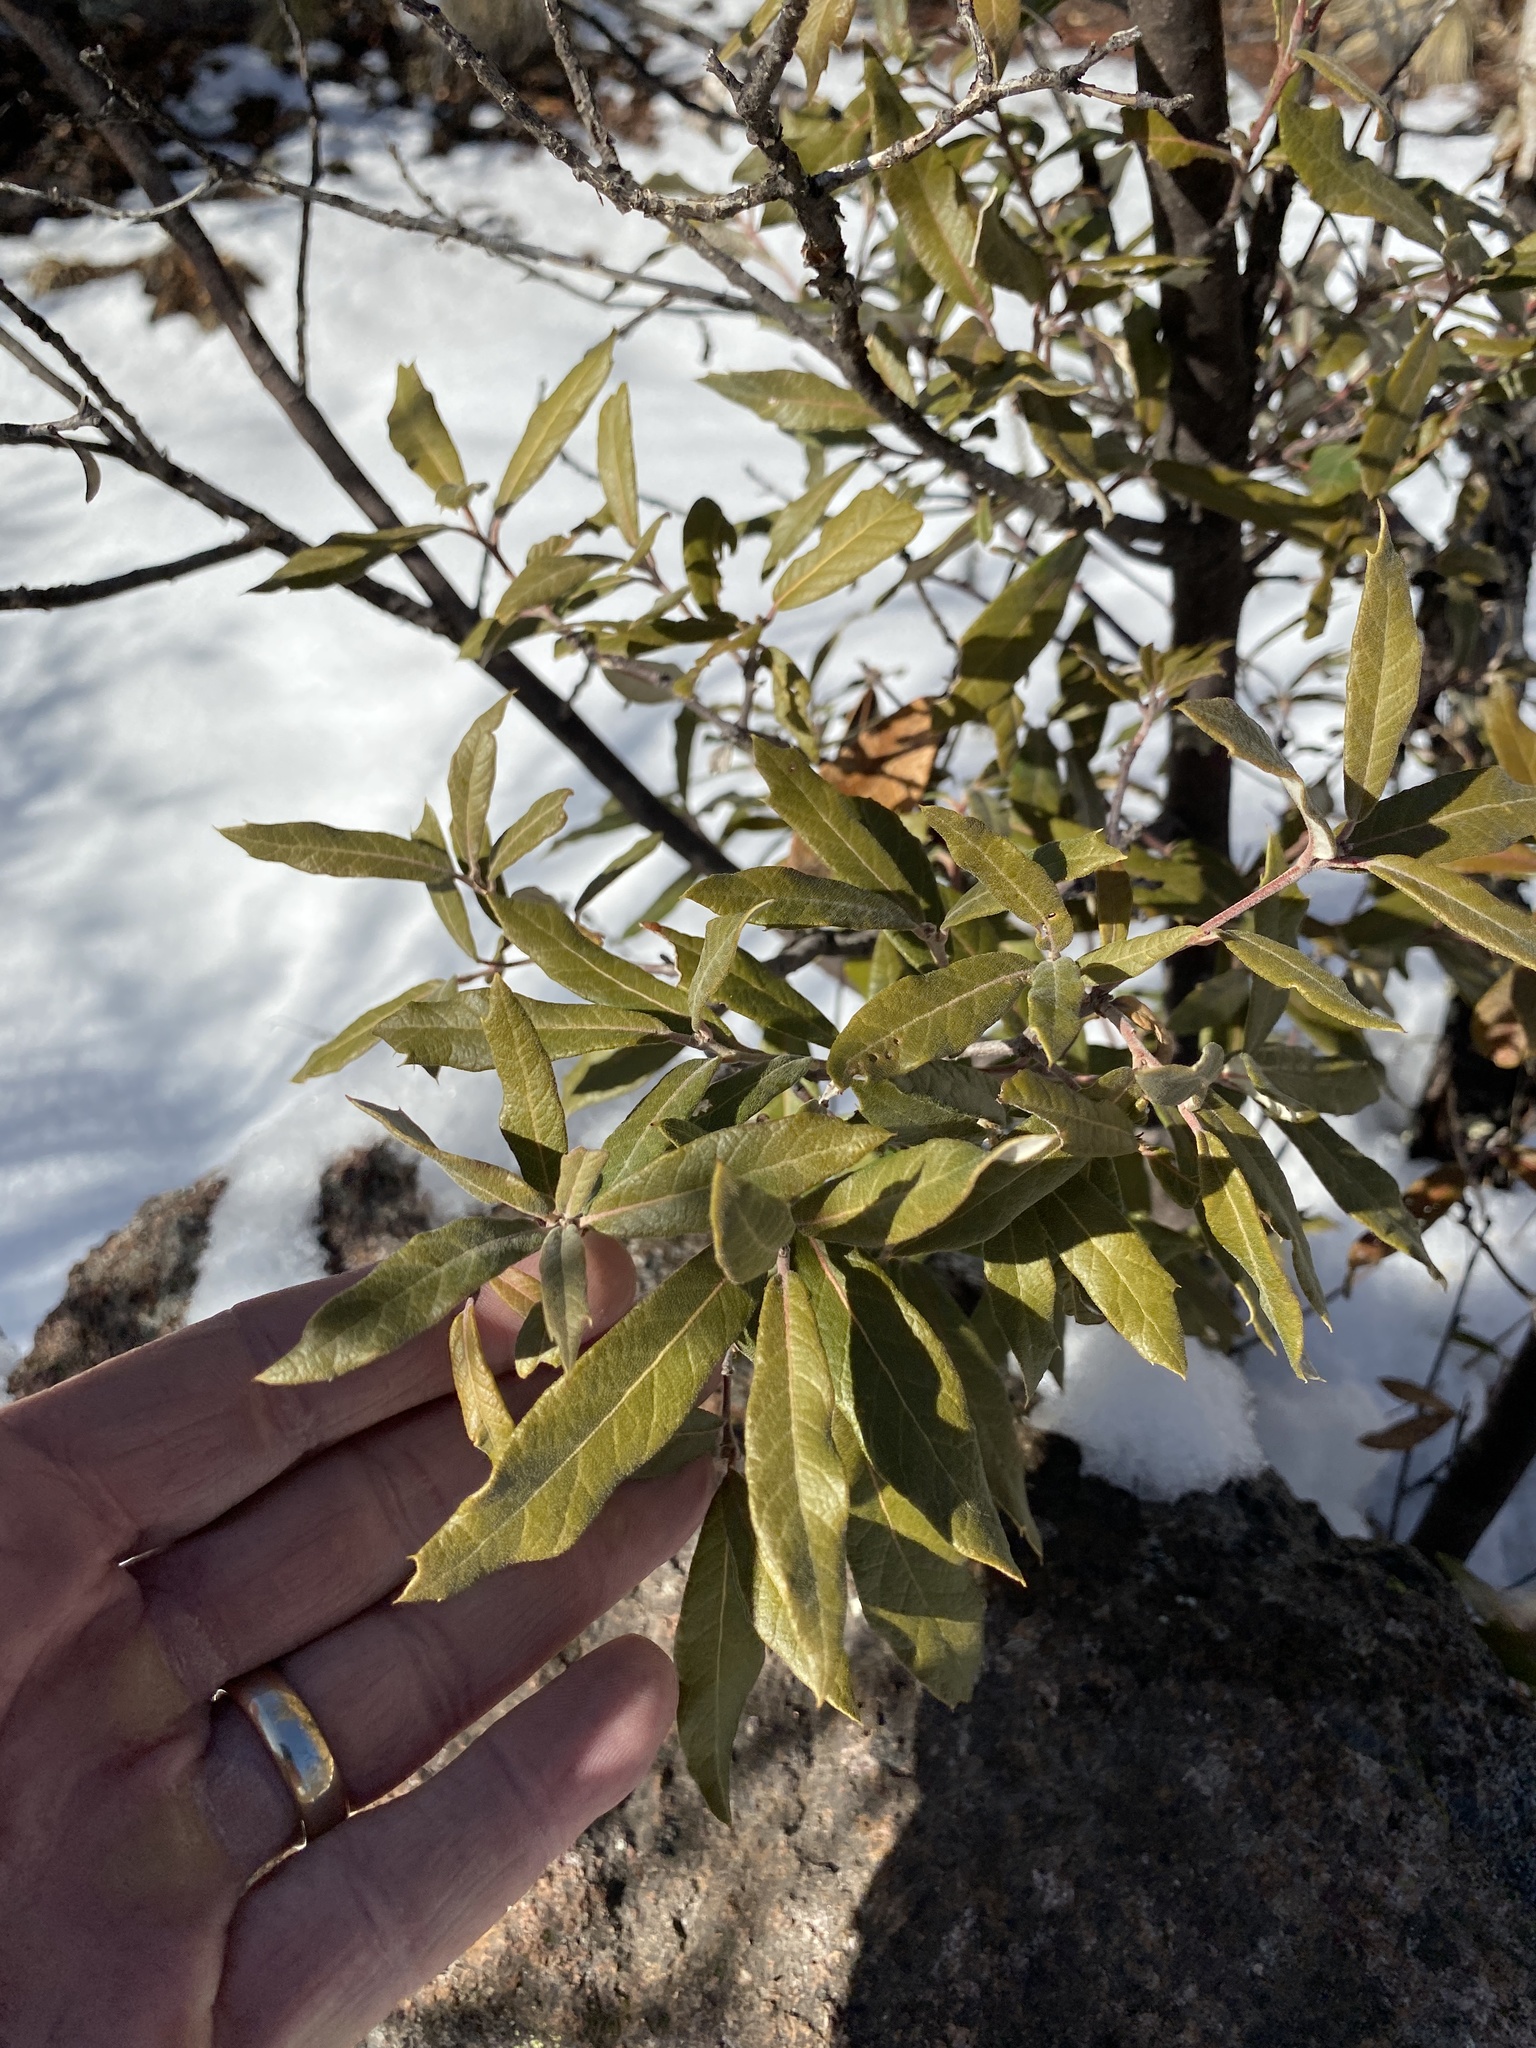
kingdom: Plantae
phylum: Tracheophyta
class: Magnoliopsida
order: Fagales
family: Fagaceae
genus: Quercus
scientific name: Quercus hypoleucoides
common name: Silverleaf oak
